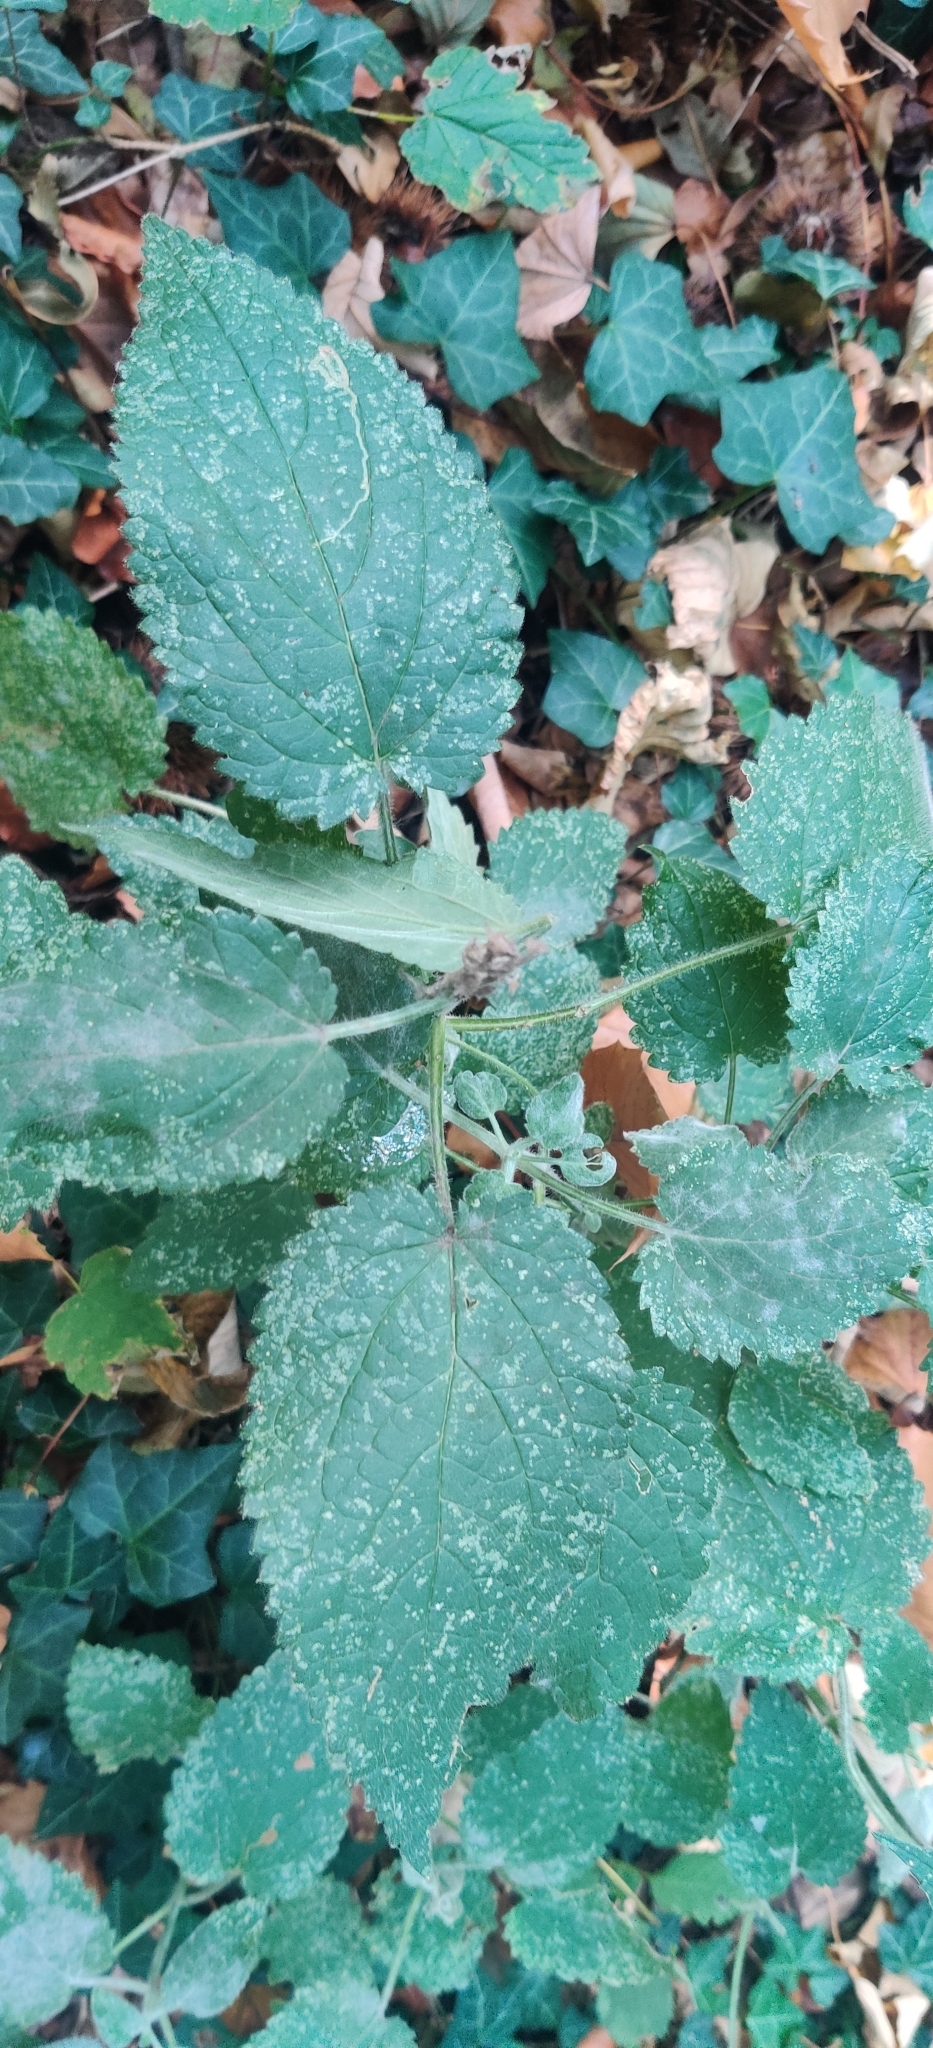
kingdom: Plantae
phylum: Tracheophyta
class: Magnoliopsida
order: Lamiales
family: Lamiaceae
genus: Stachys
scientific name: Stachys sylvatica
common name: Hedge woundwort
